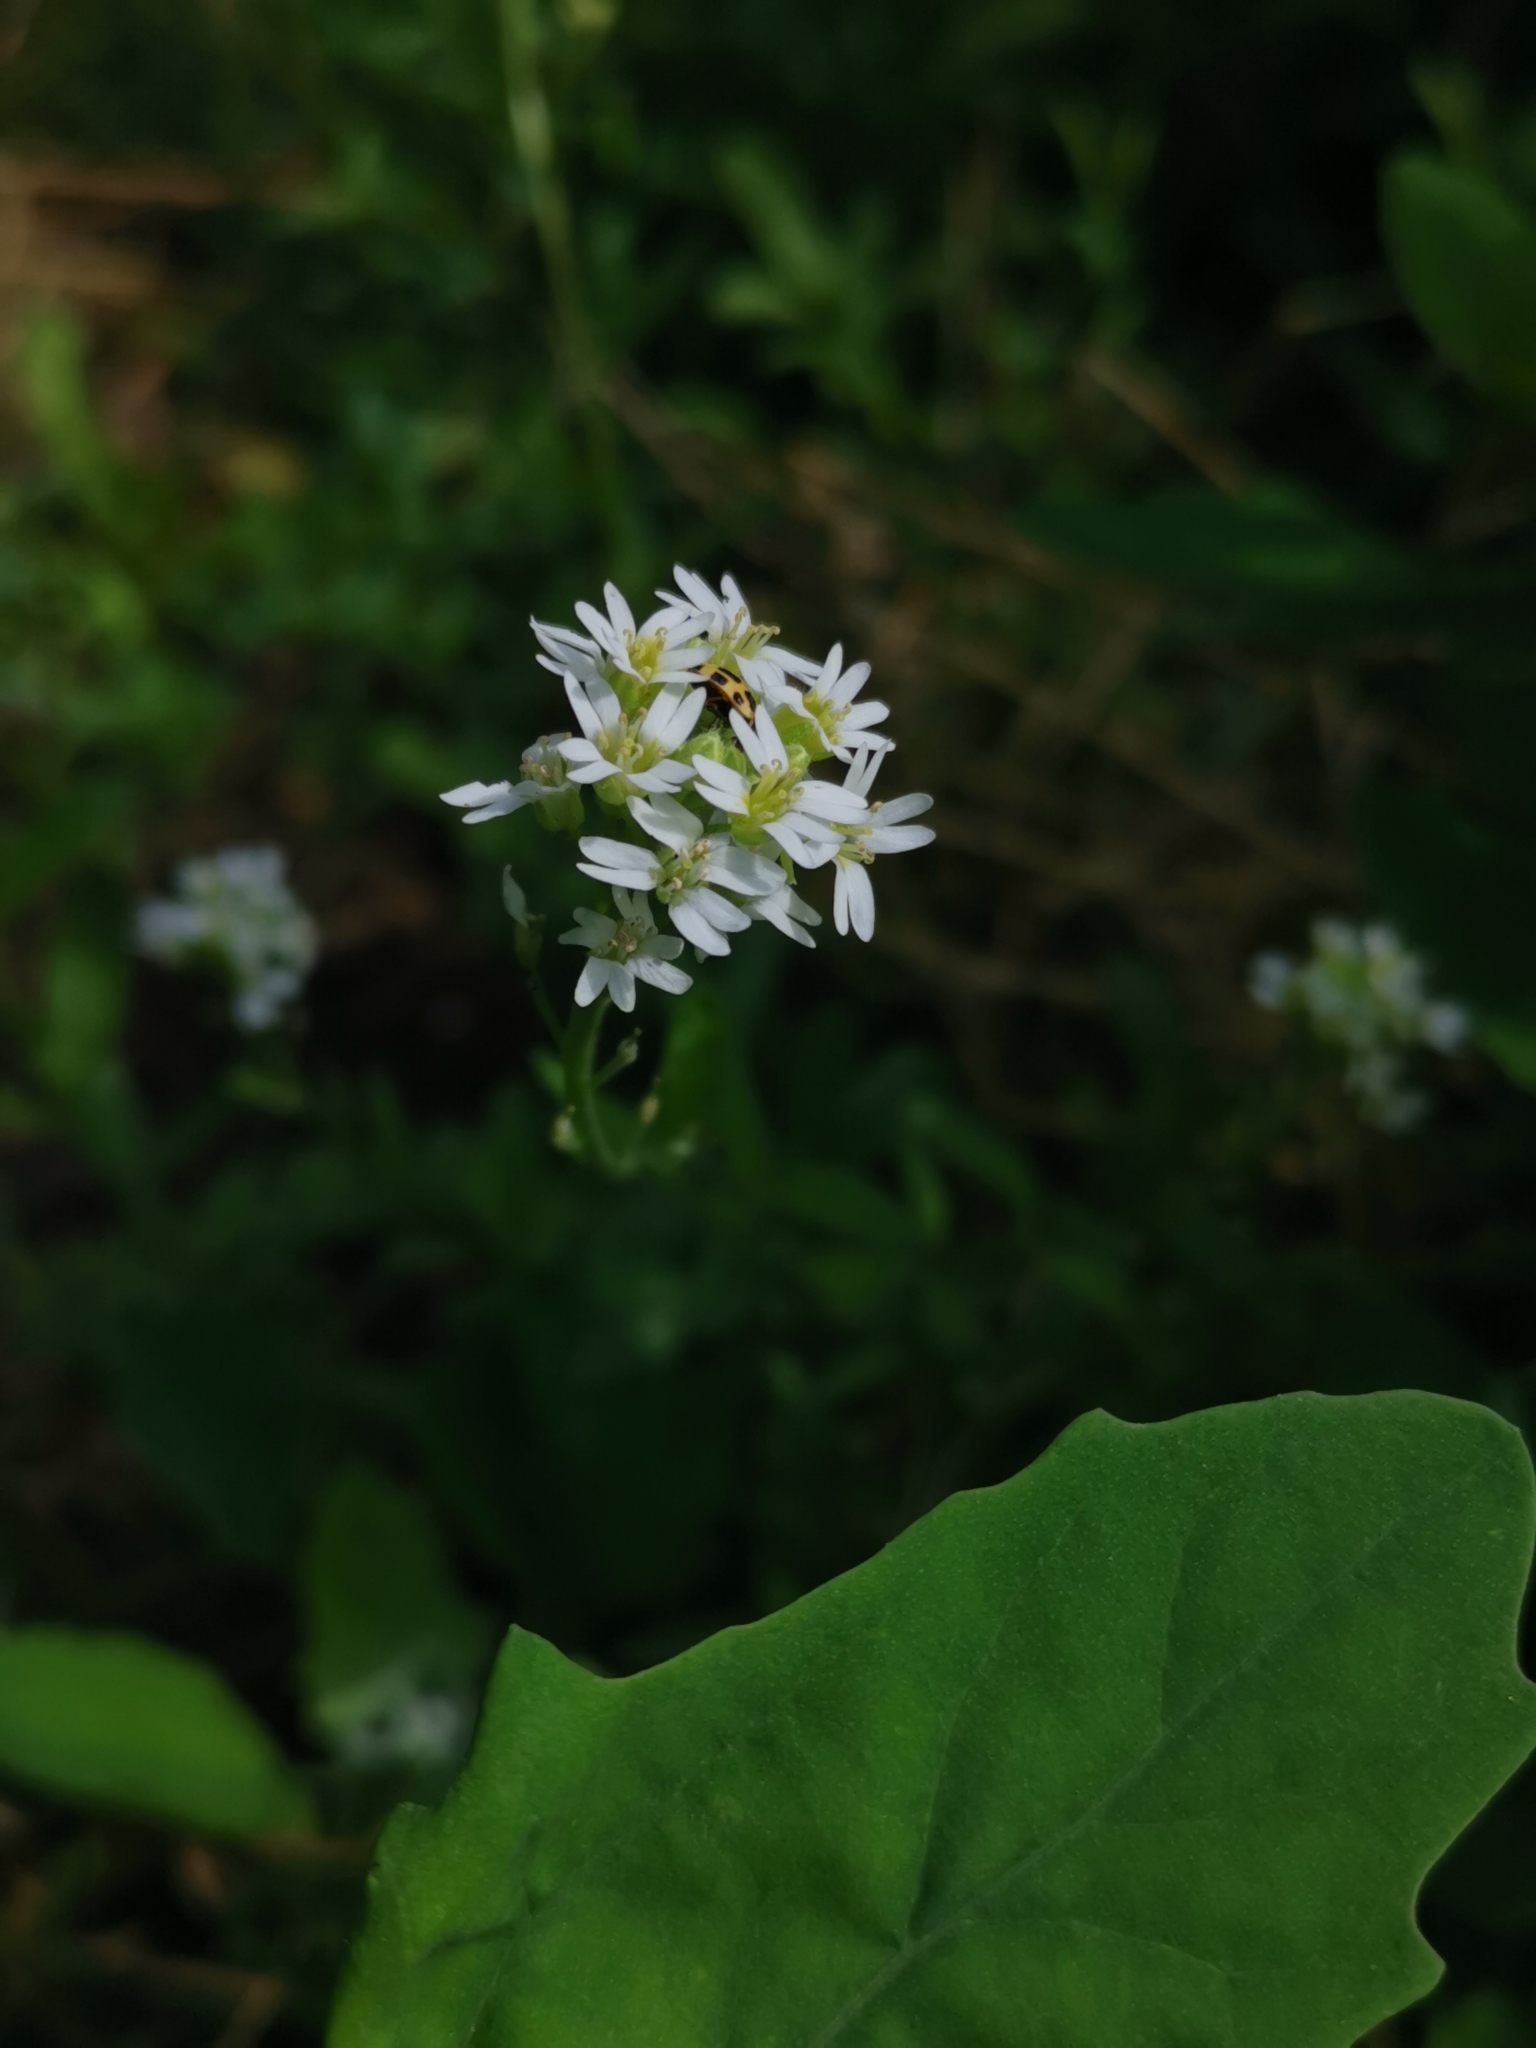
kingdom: Plantae
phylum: Tracheophyta
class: Magnoliopsida
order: Brassicales
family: Brassicaceae
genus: Berteroa
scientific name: Berteroa incana
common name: Hoary alison
